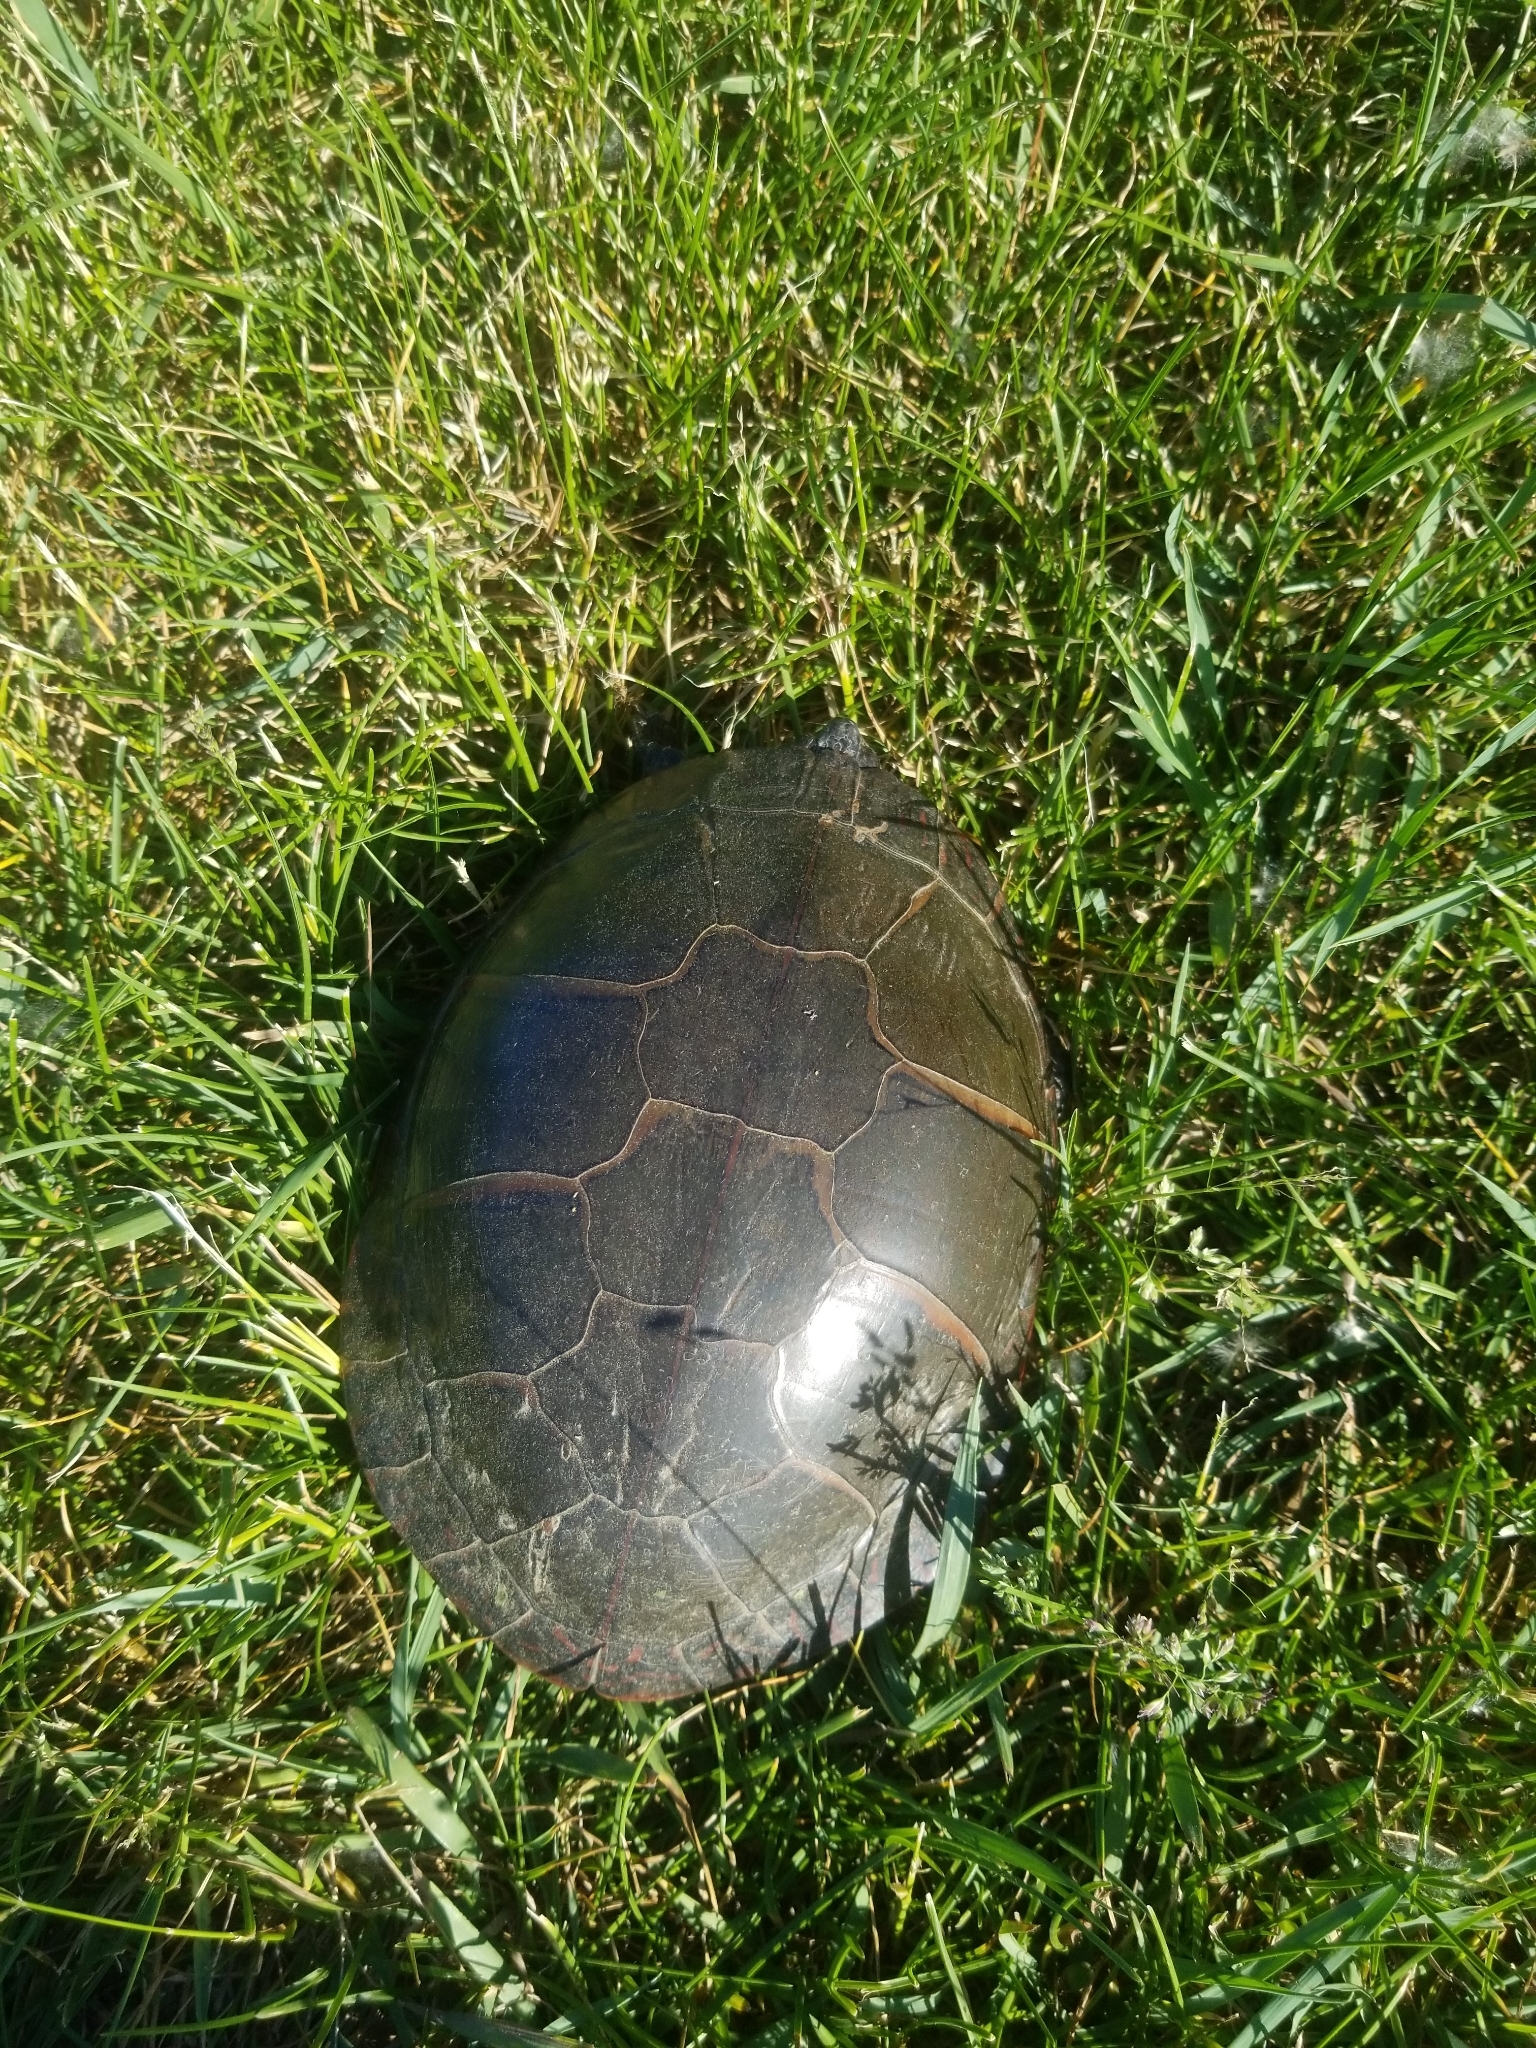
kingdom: Animalia
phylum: Chordata
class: Testudines
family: Emydidae
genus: Chrysemys
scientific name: Chrysemys picta
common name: Painted turtle
